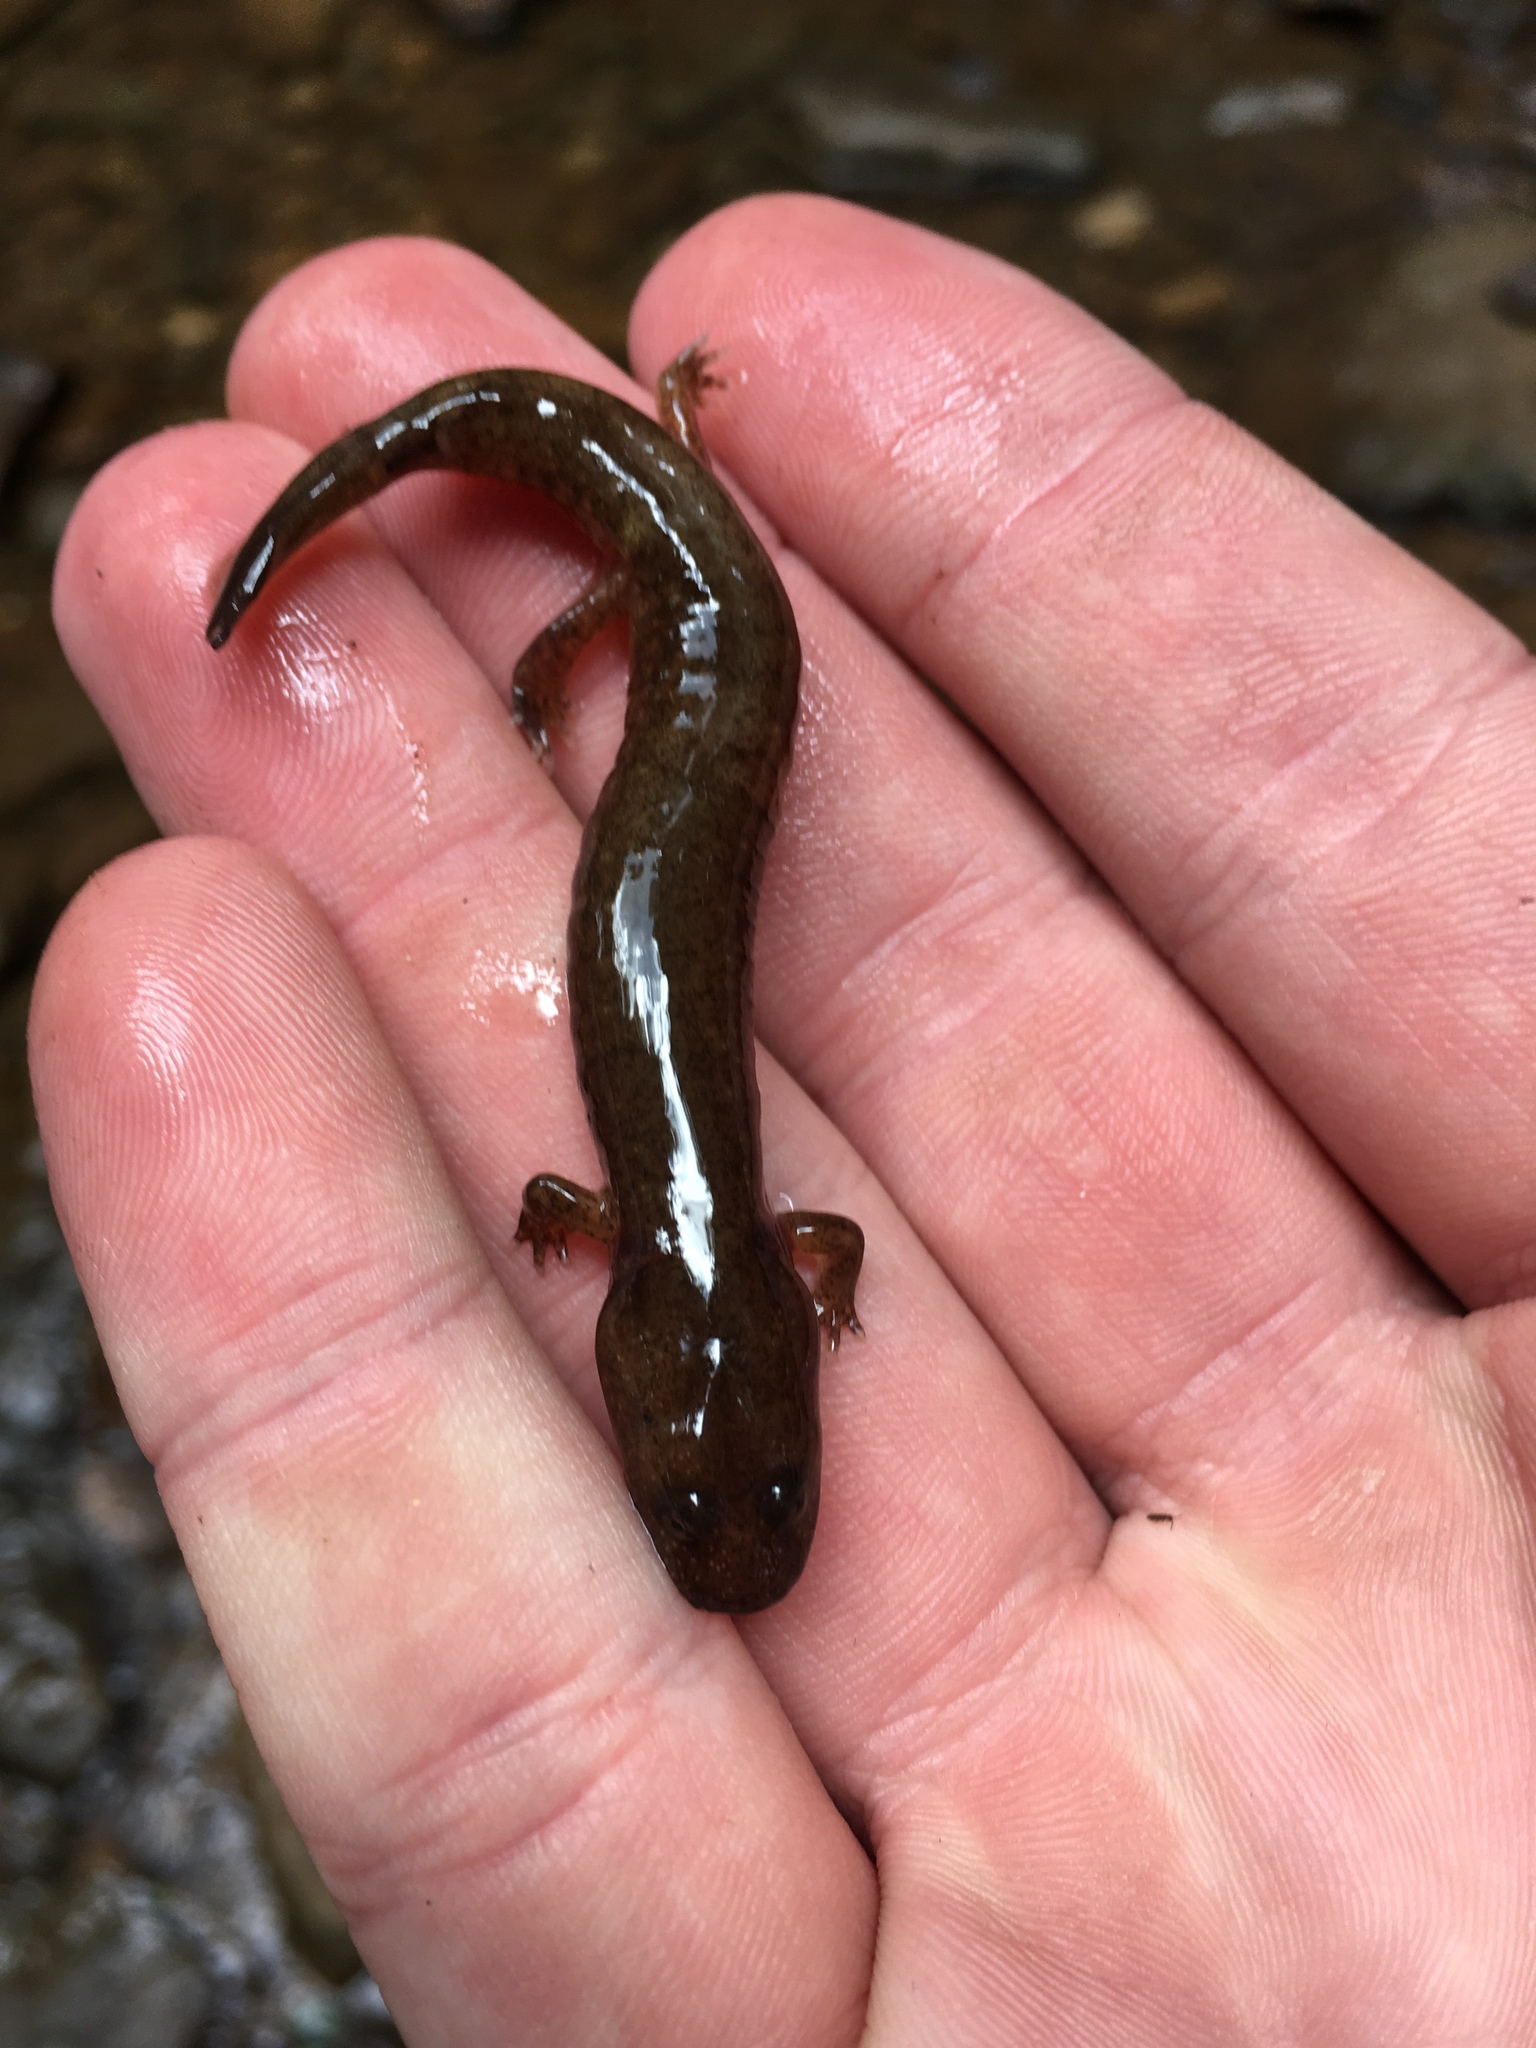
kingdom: Animalia
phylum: Chordata
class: Amphibia
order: Caudata
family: Plethodontidae
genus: Gyrinophilus
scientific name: Gyrinophilus porphyriticus
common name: Spring salamander
